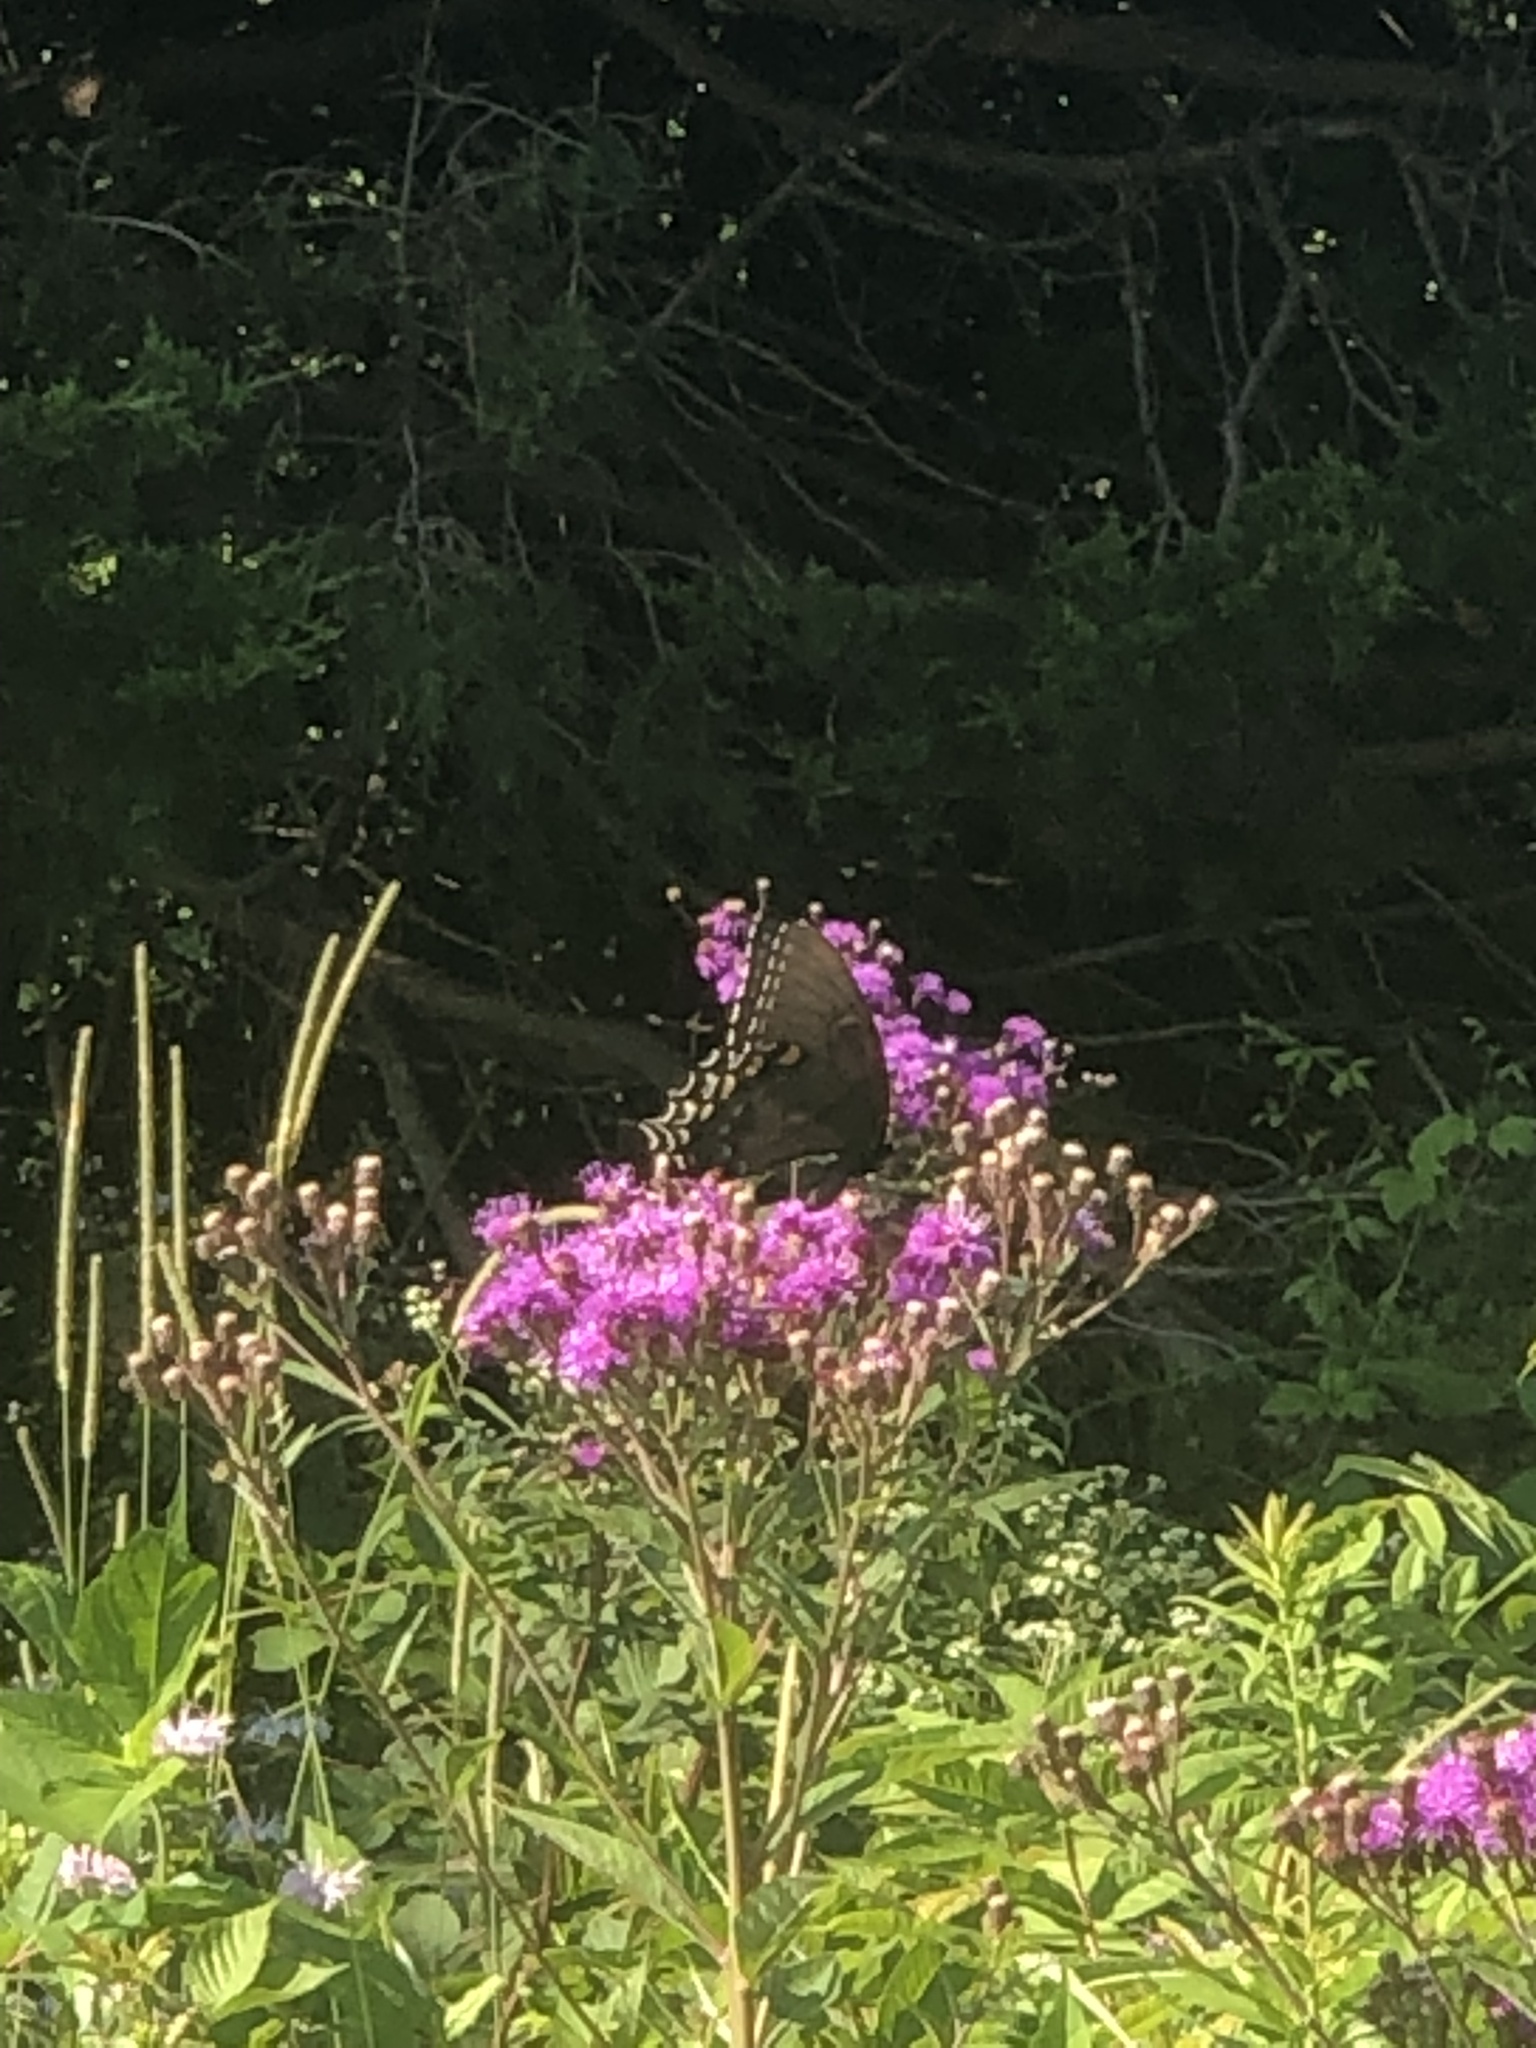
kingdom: Animalia
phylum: Arthropoda
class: Insecta
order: Lepidoptera
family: Papilionidae
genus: Papilio
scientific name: Papilio glaucus
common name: Tiger swallowtail
